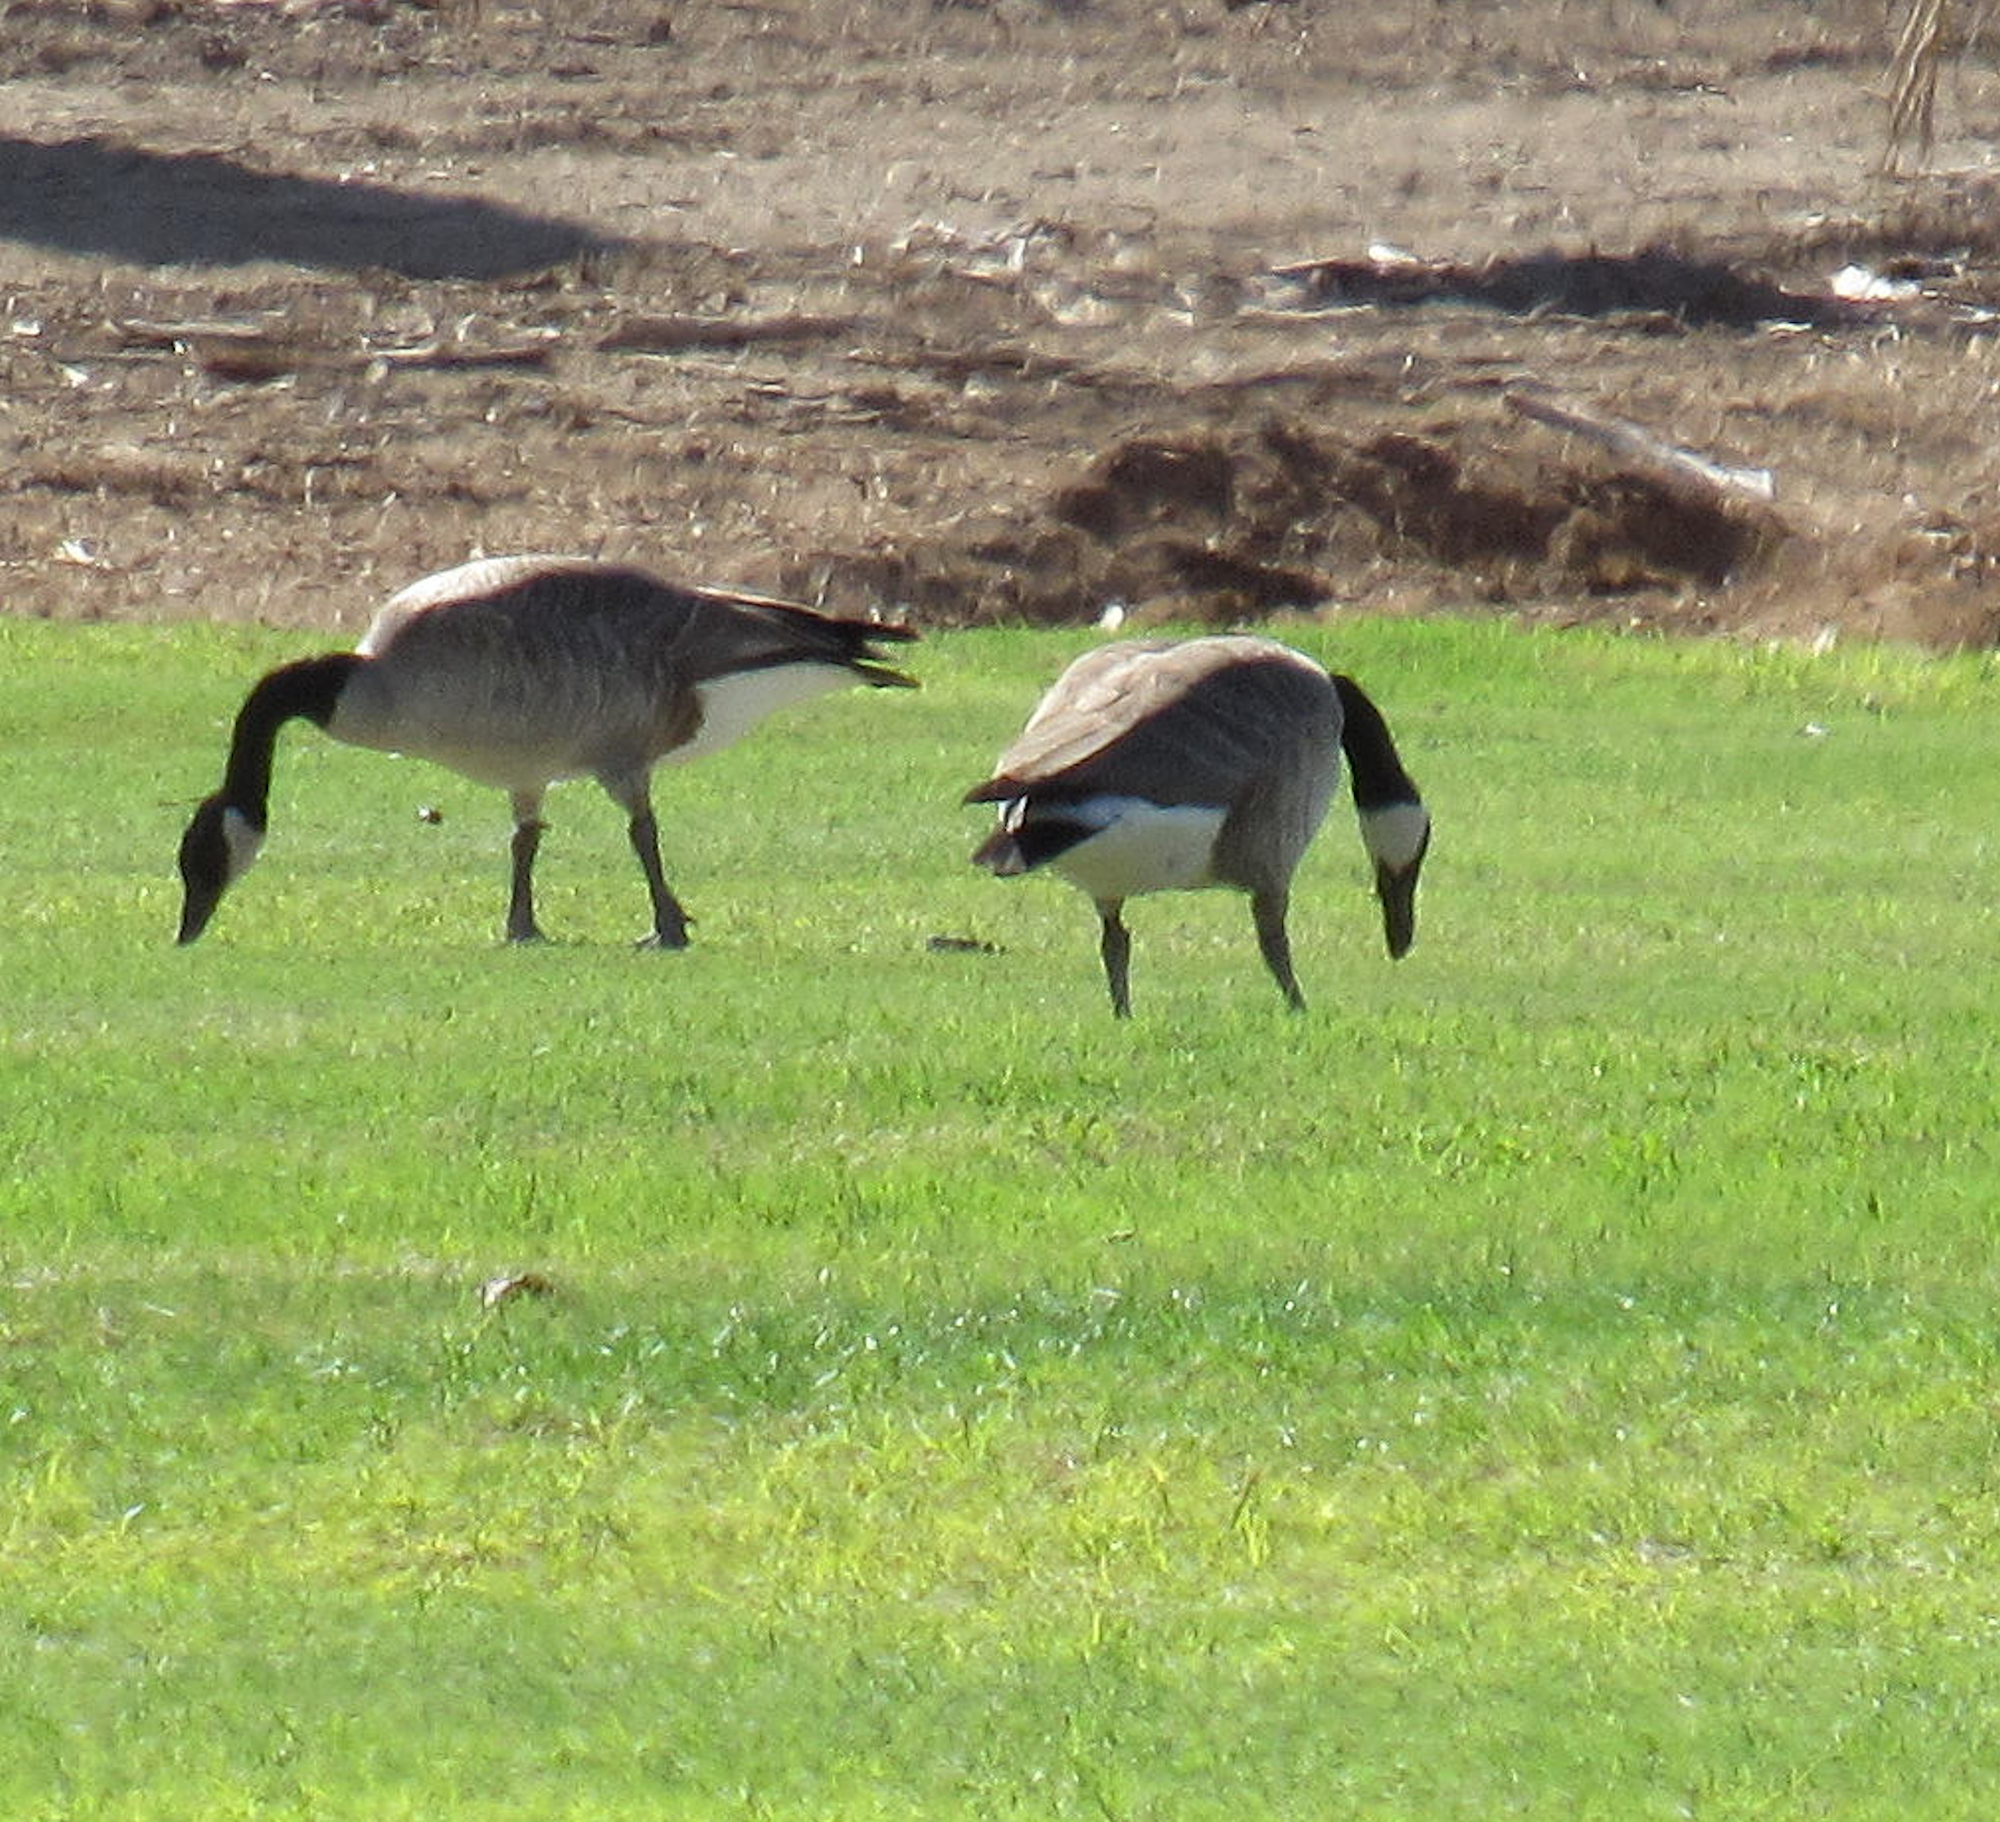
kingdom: Animalia
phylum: Chordata
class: Aves
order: Anseriformes
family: Anatidae
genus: Branta
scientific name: Branta canadensis
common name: Canada goose
